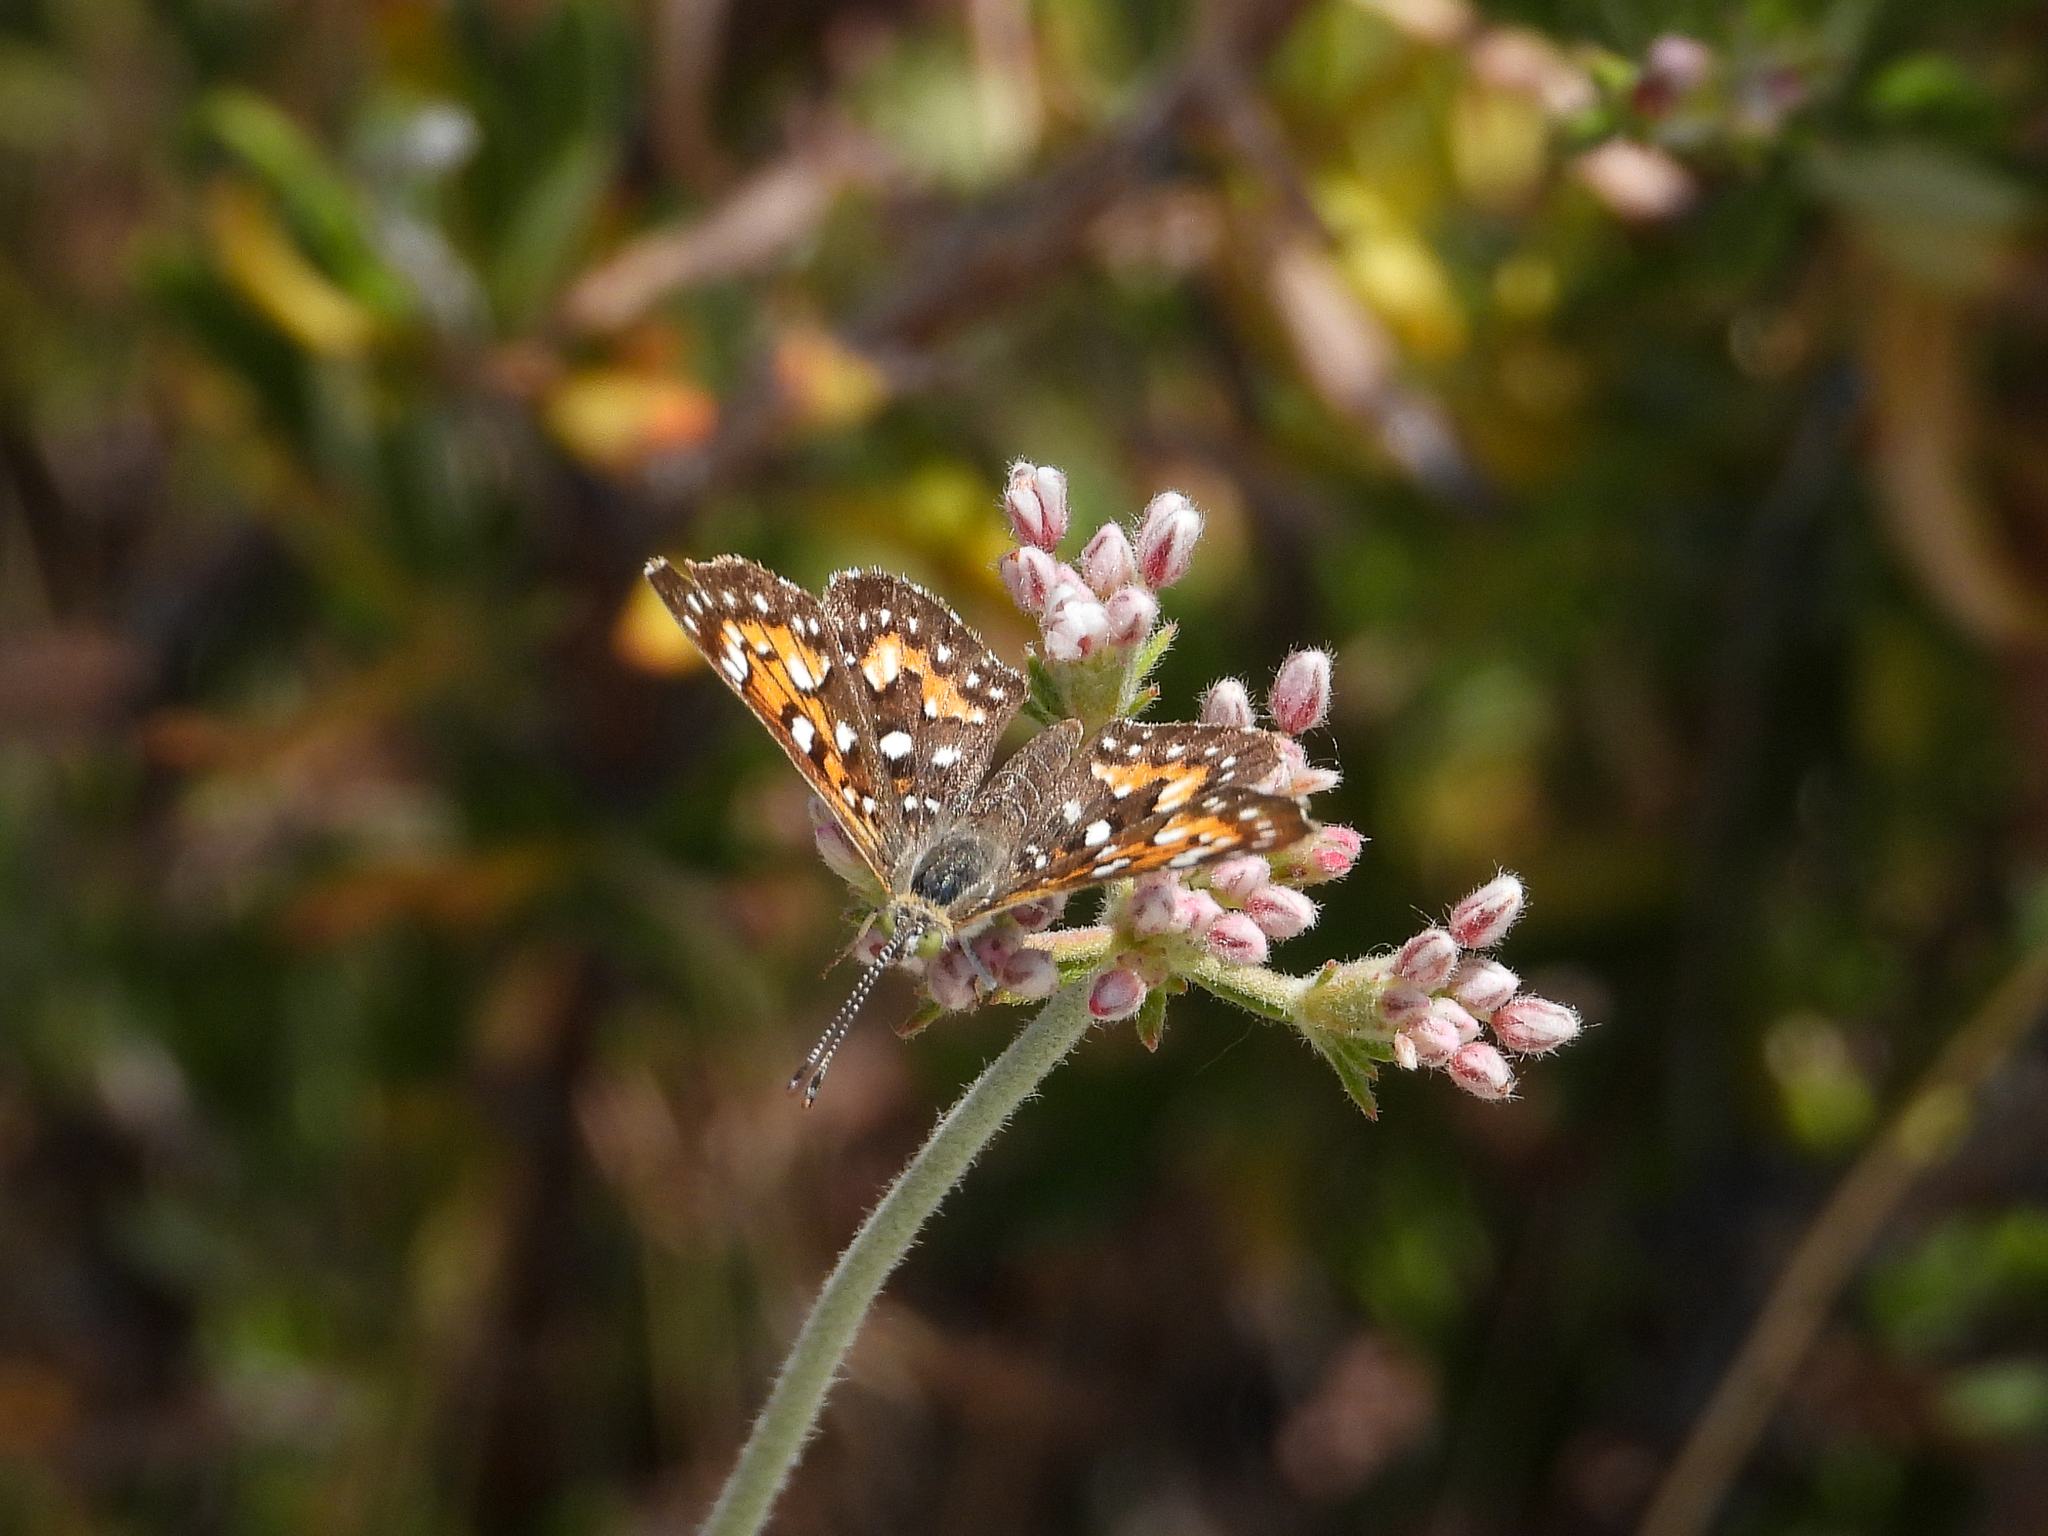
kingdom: Animalia
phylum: Arthropoda
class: Insecta
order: Lepidoptera
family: Riodinidae
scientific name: Riodinidae
